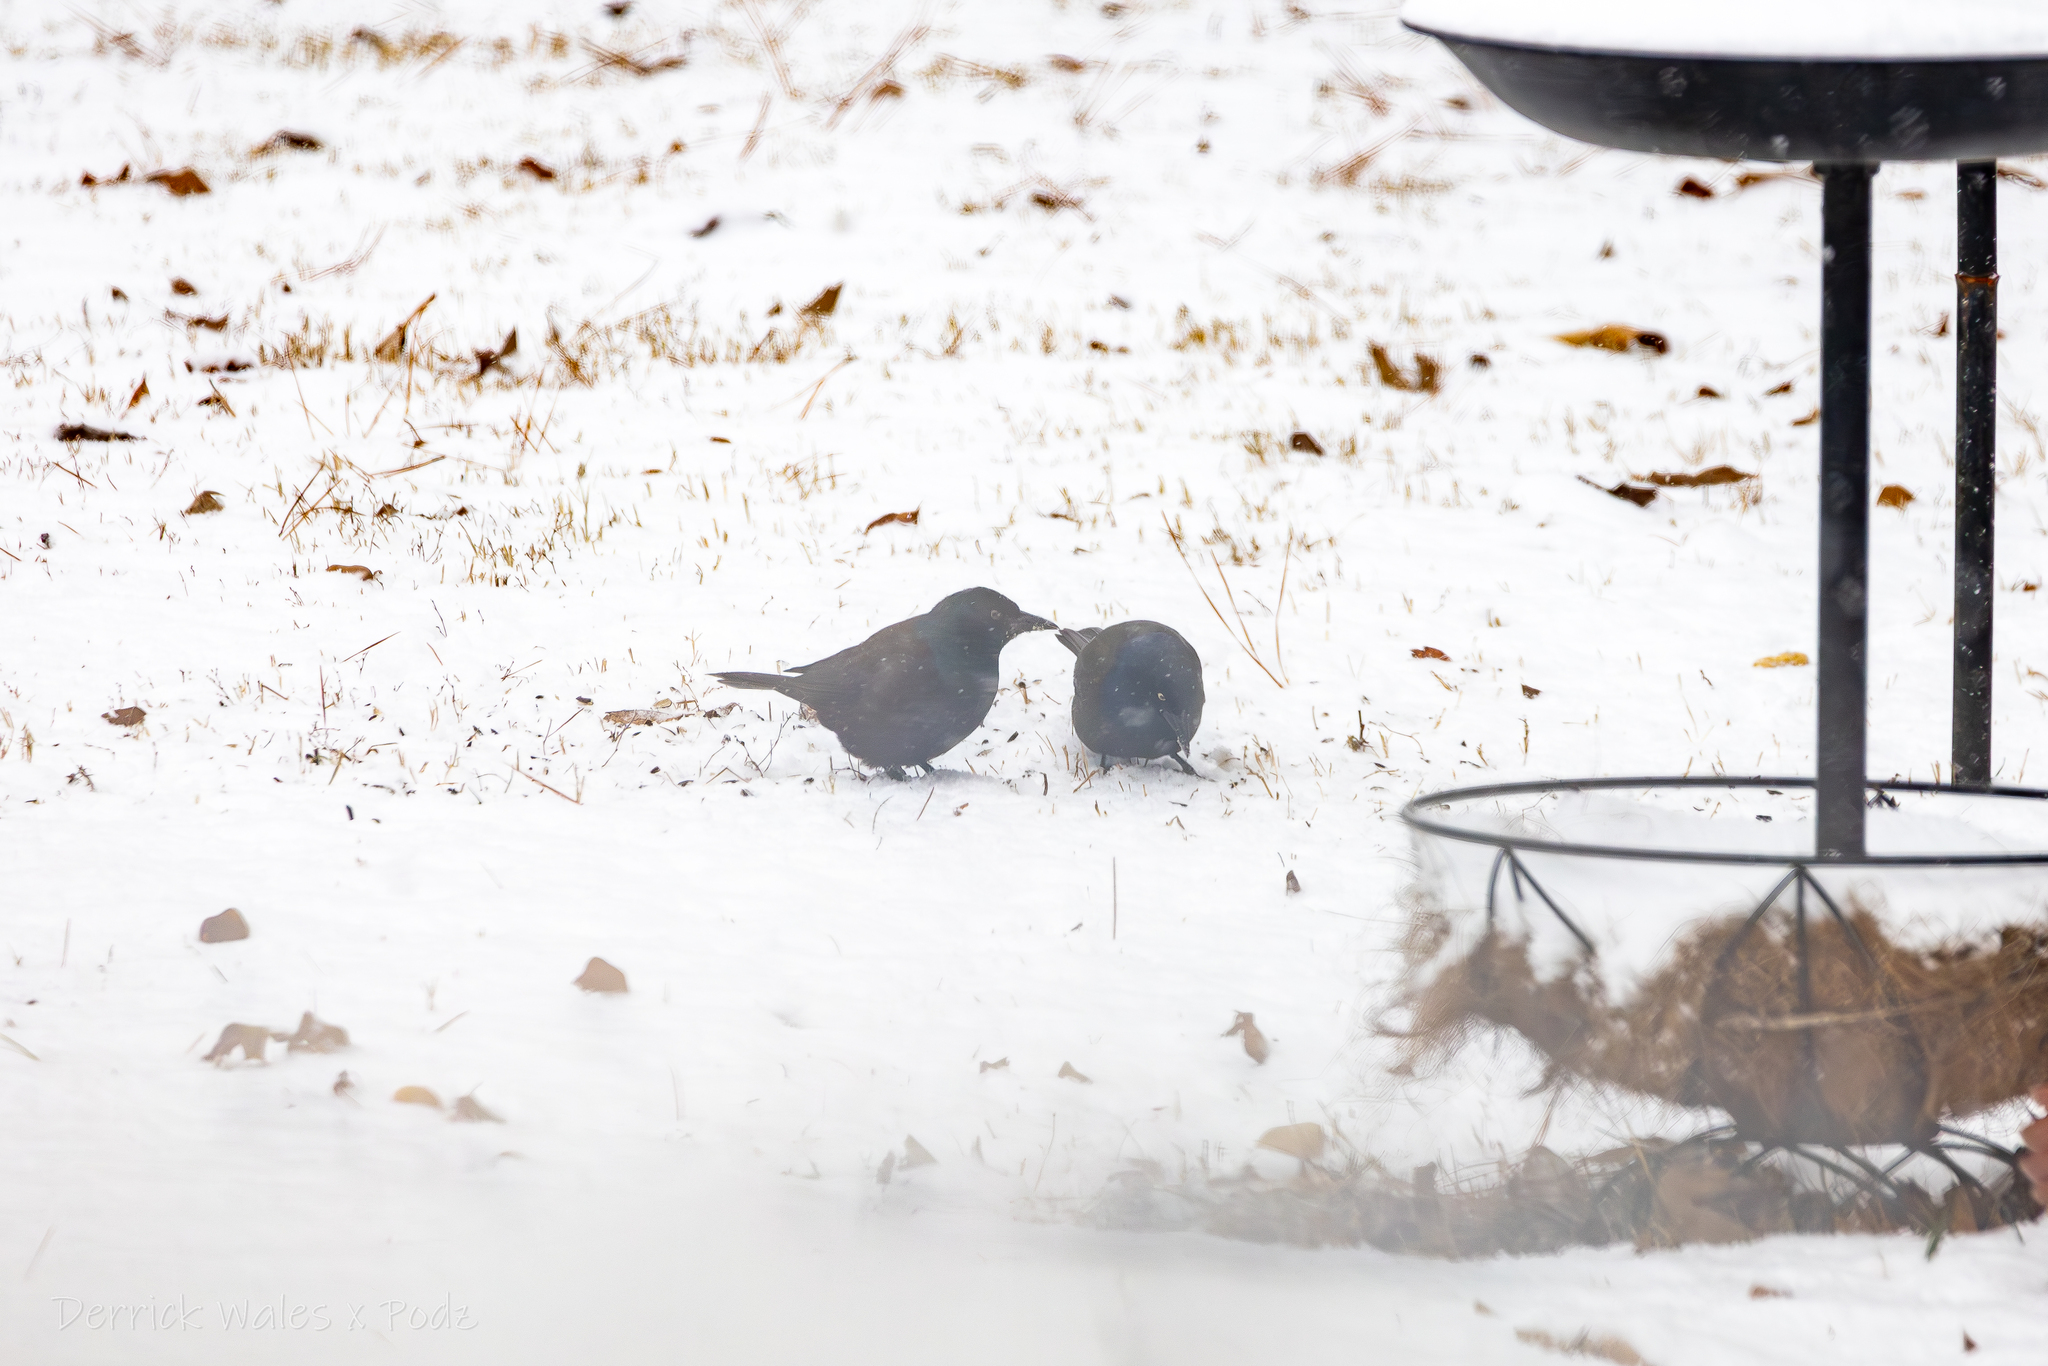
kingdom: Animalia
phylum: Chordata
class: Aves
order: Passeriformes
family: Icteridae
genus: Quiscalus
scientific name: Quiscalus quiscula
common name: Common grackle
